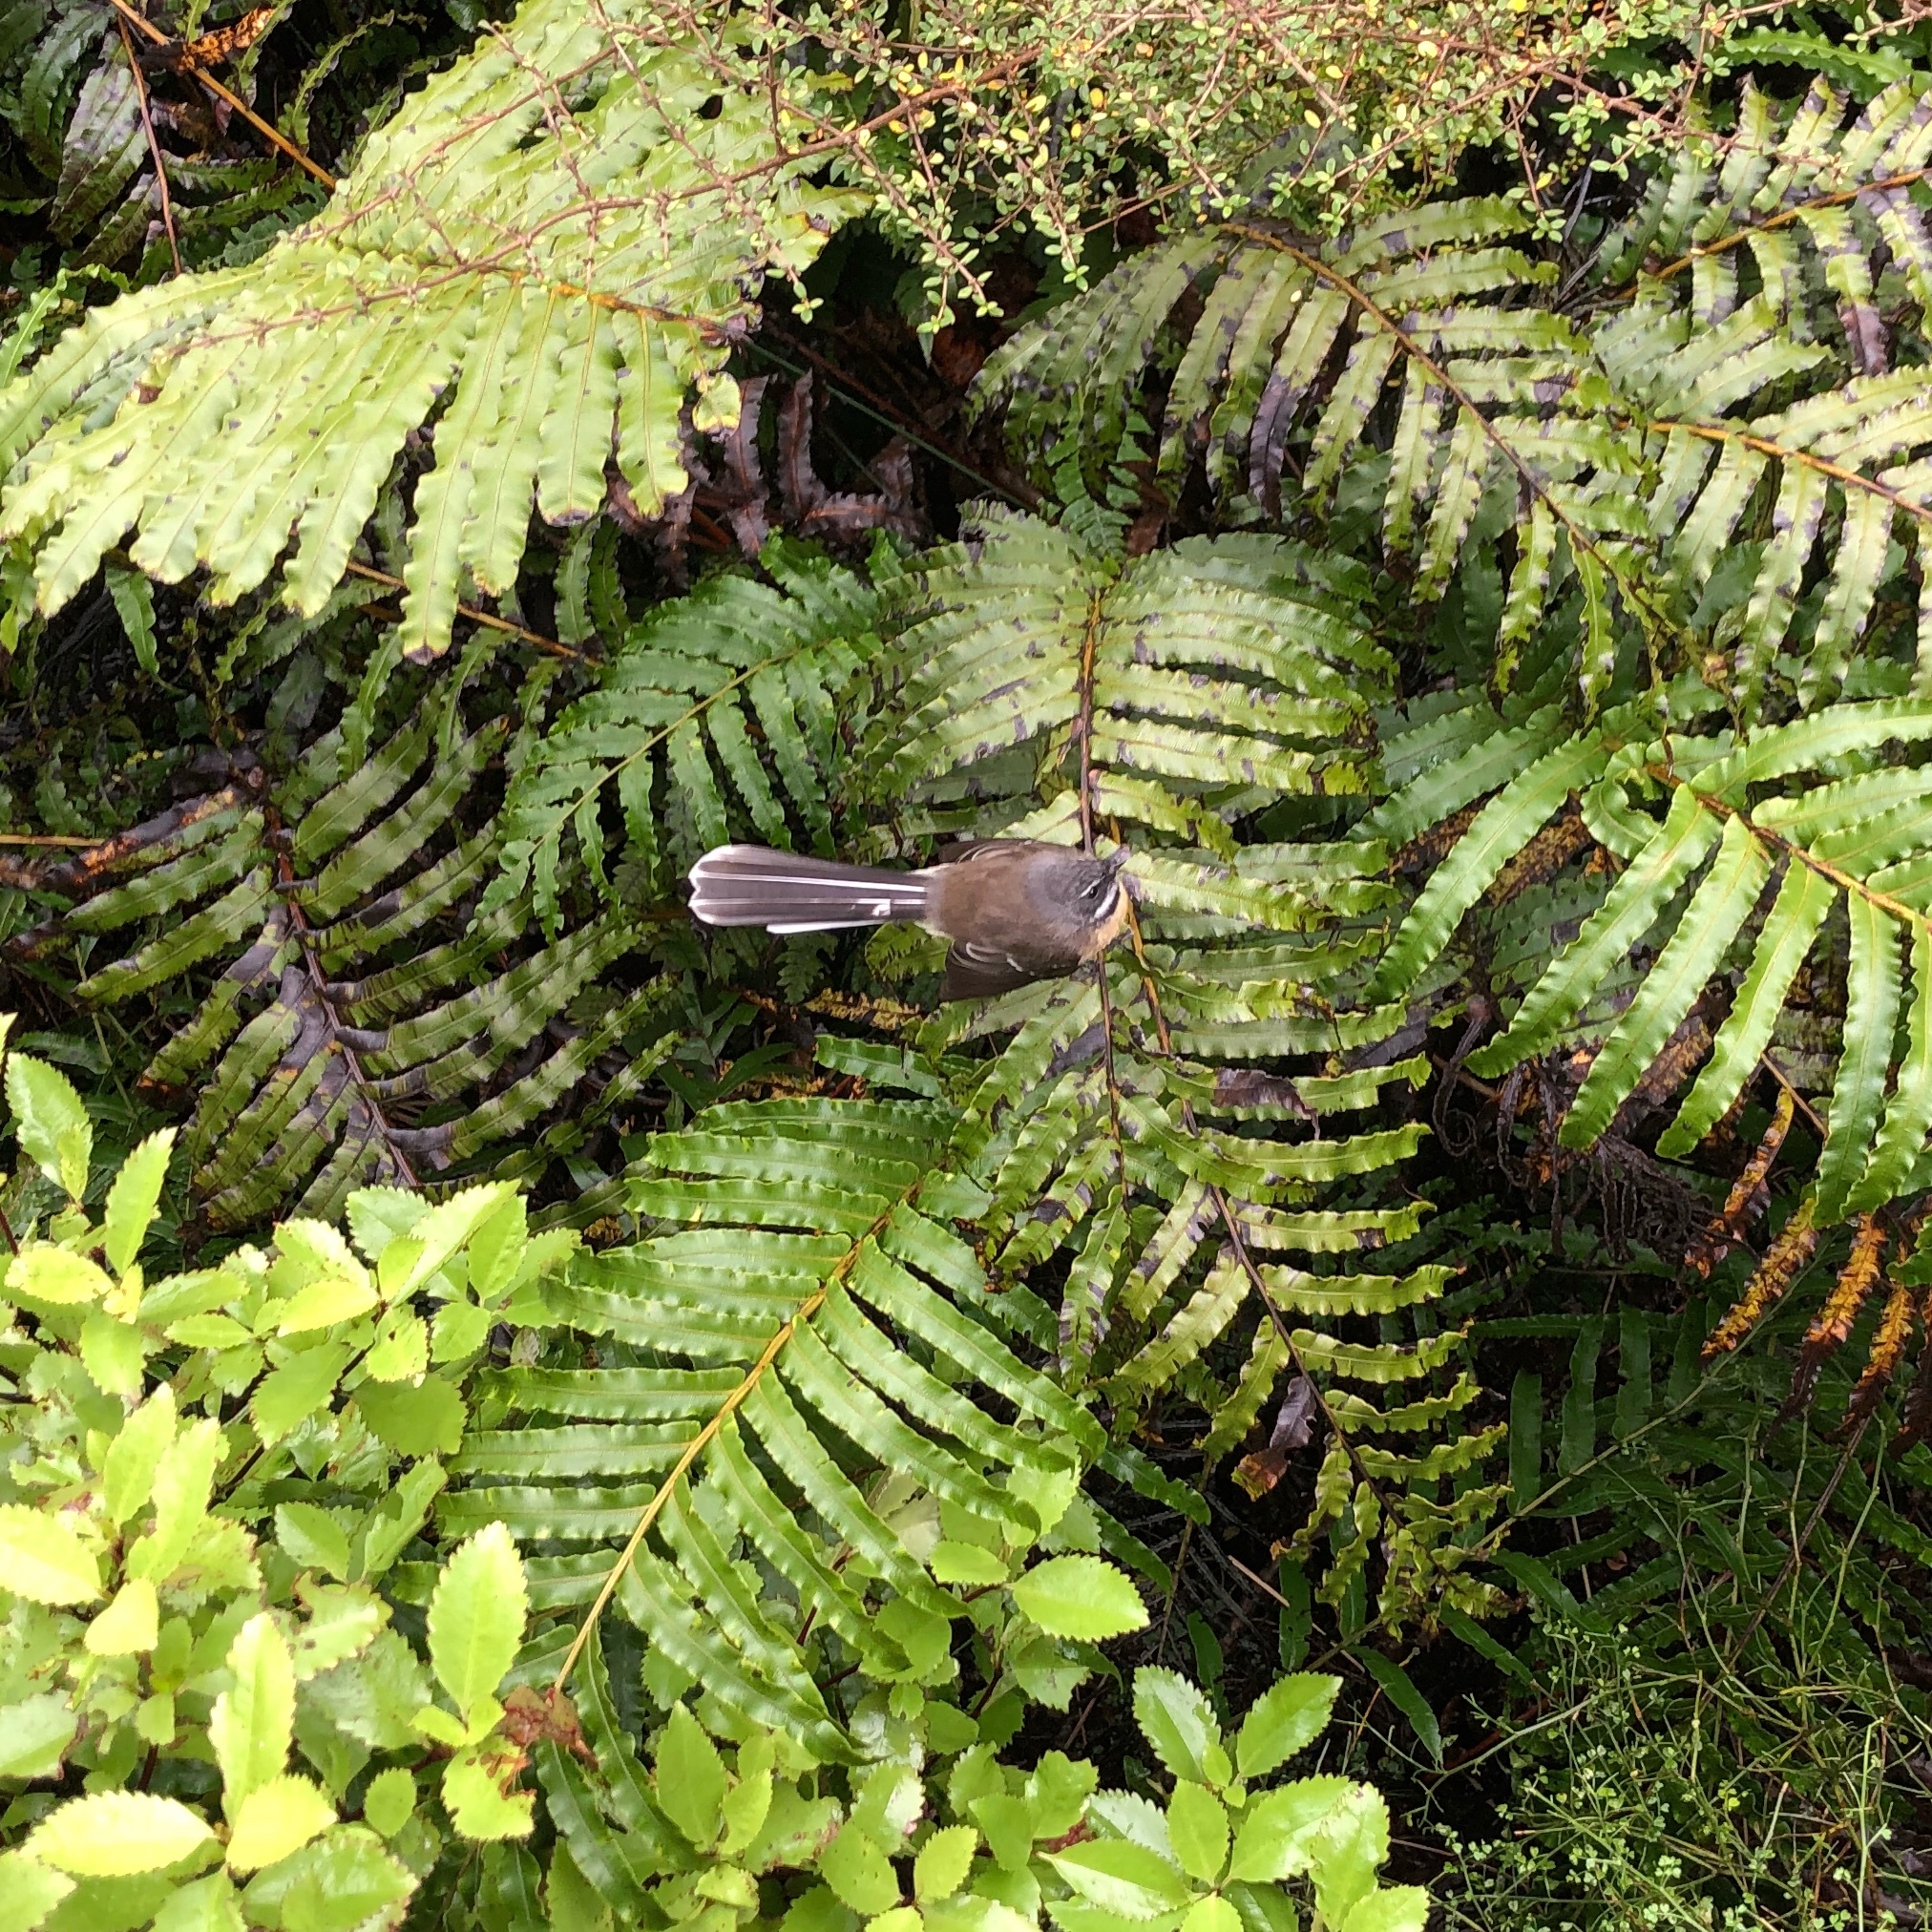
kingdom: Animalia
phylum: Chordata
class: Aves
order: Passeriformes
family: Rhipiduridae
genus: Rhipidura
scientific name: Rhipidura fuliginosa
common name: New zealand fantail
